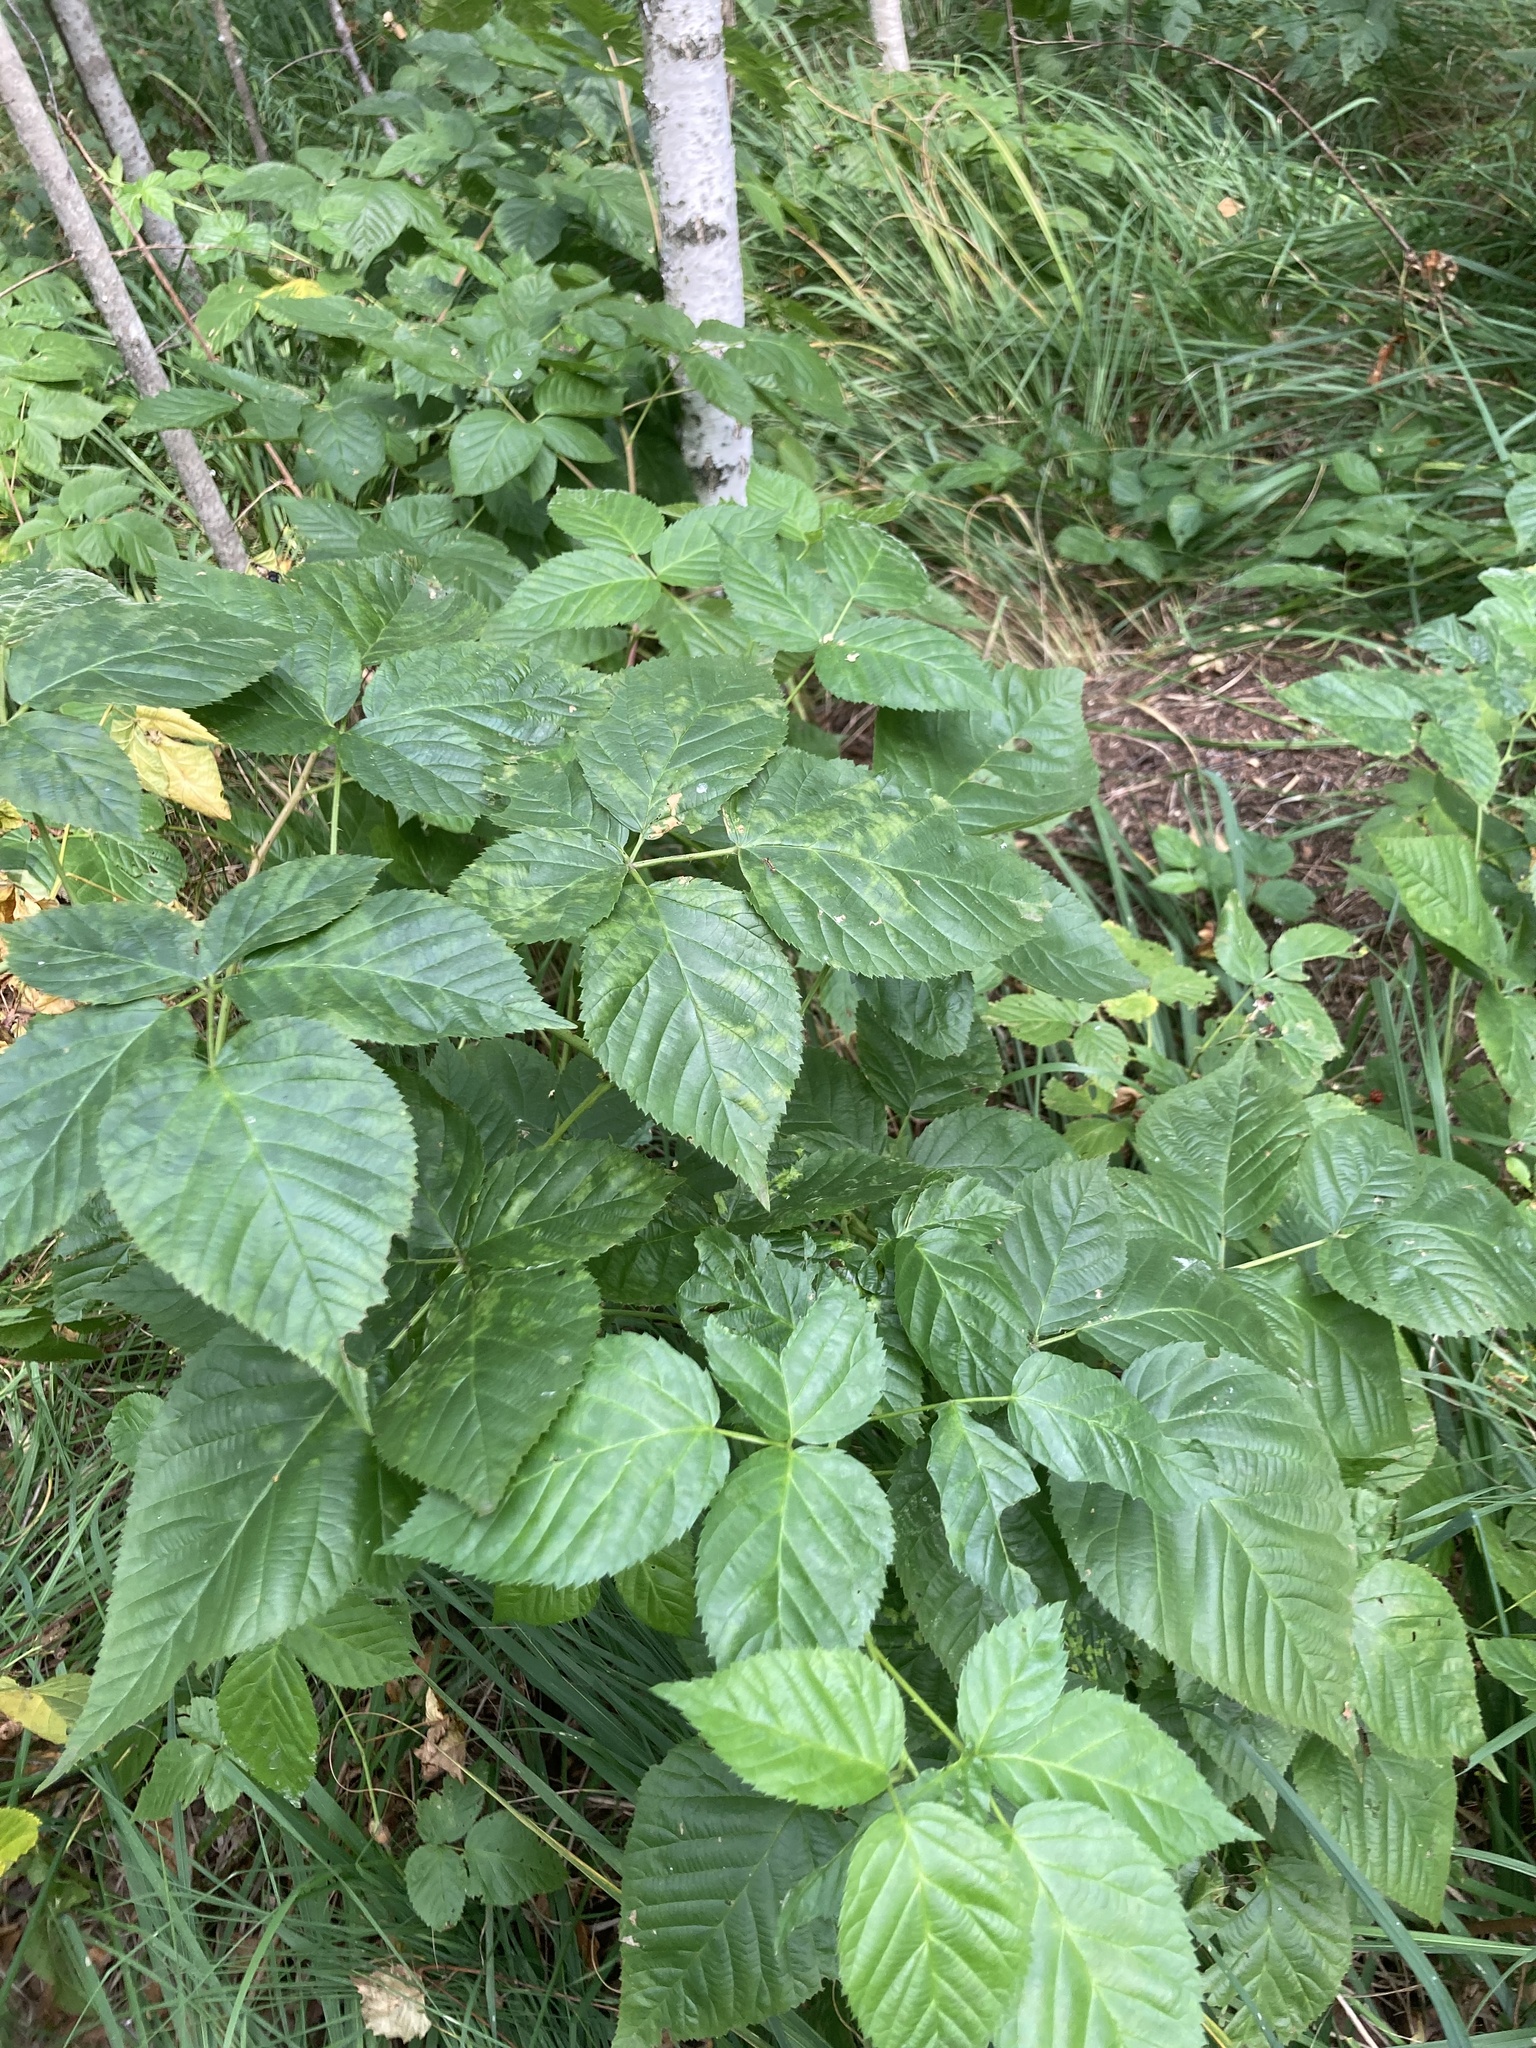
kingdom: Plantae
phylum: Tracheophyta
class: Magnoliopsida
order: Rosales
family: Rosaceae
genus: Rubus
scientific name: Rubus polonicus
